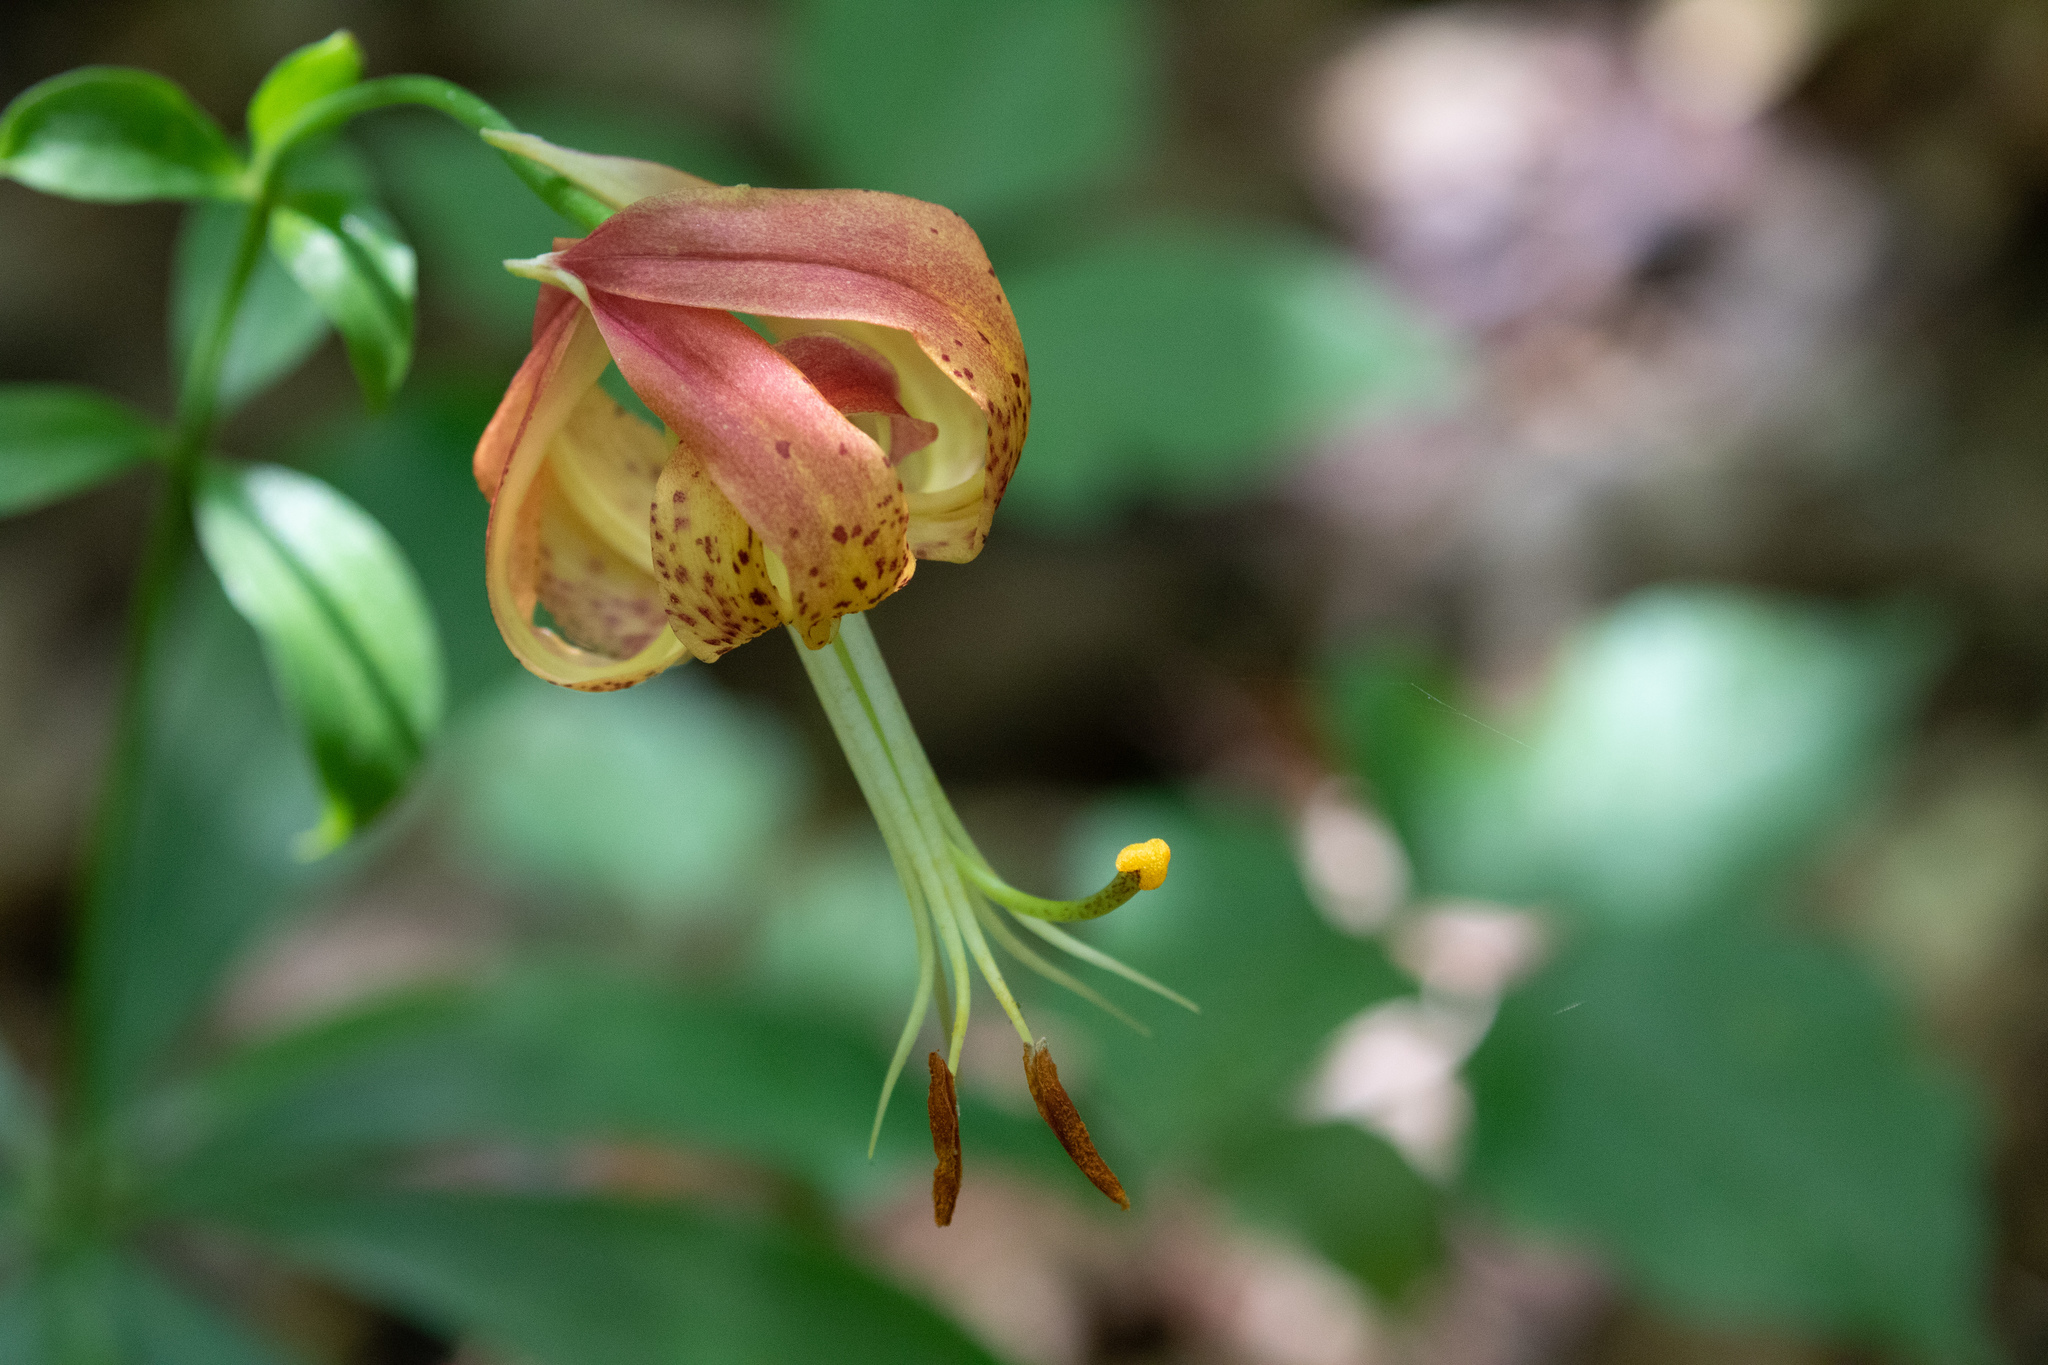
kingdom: Plantae
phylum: Tracheophyta
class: Liliopsida
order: Liliales
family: Liliaceae
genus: Lilium
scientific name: Lilium michauxii
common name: Carolina lily
